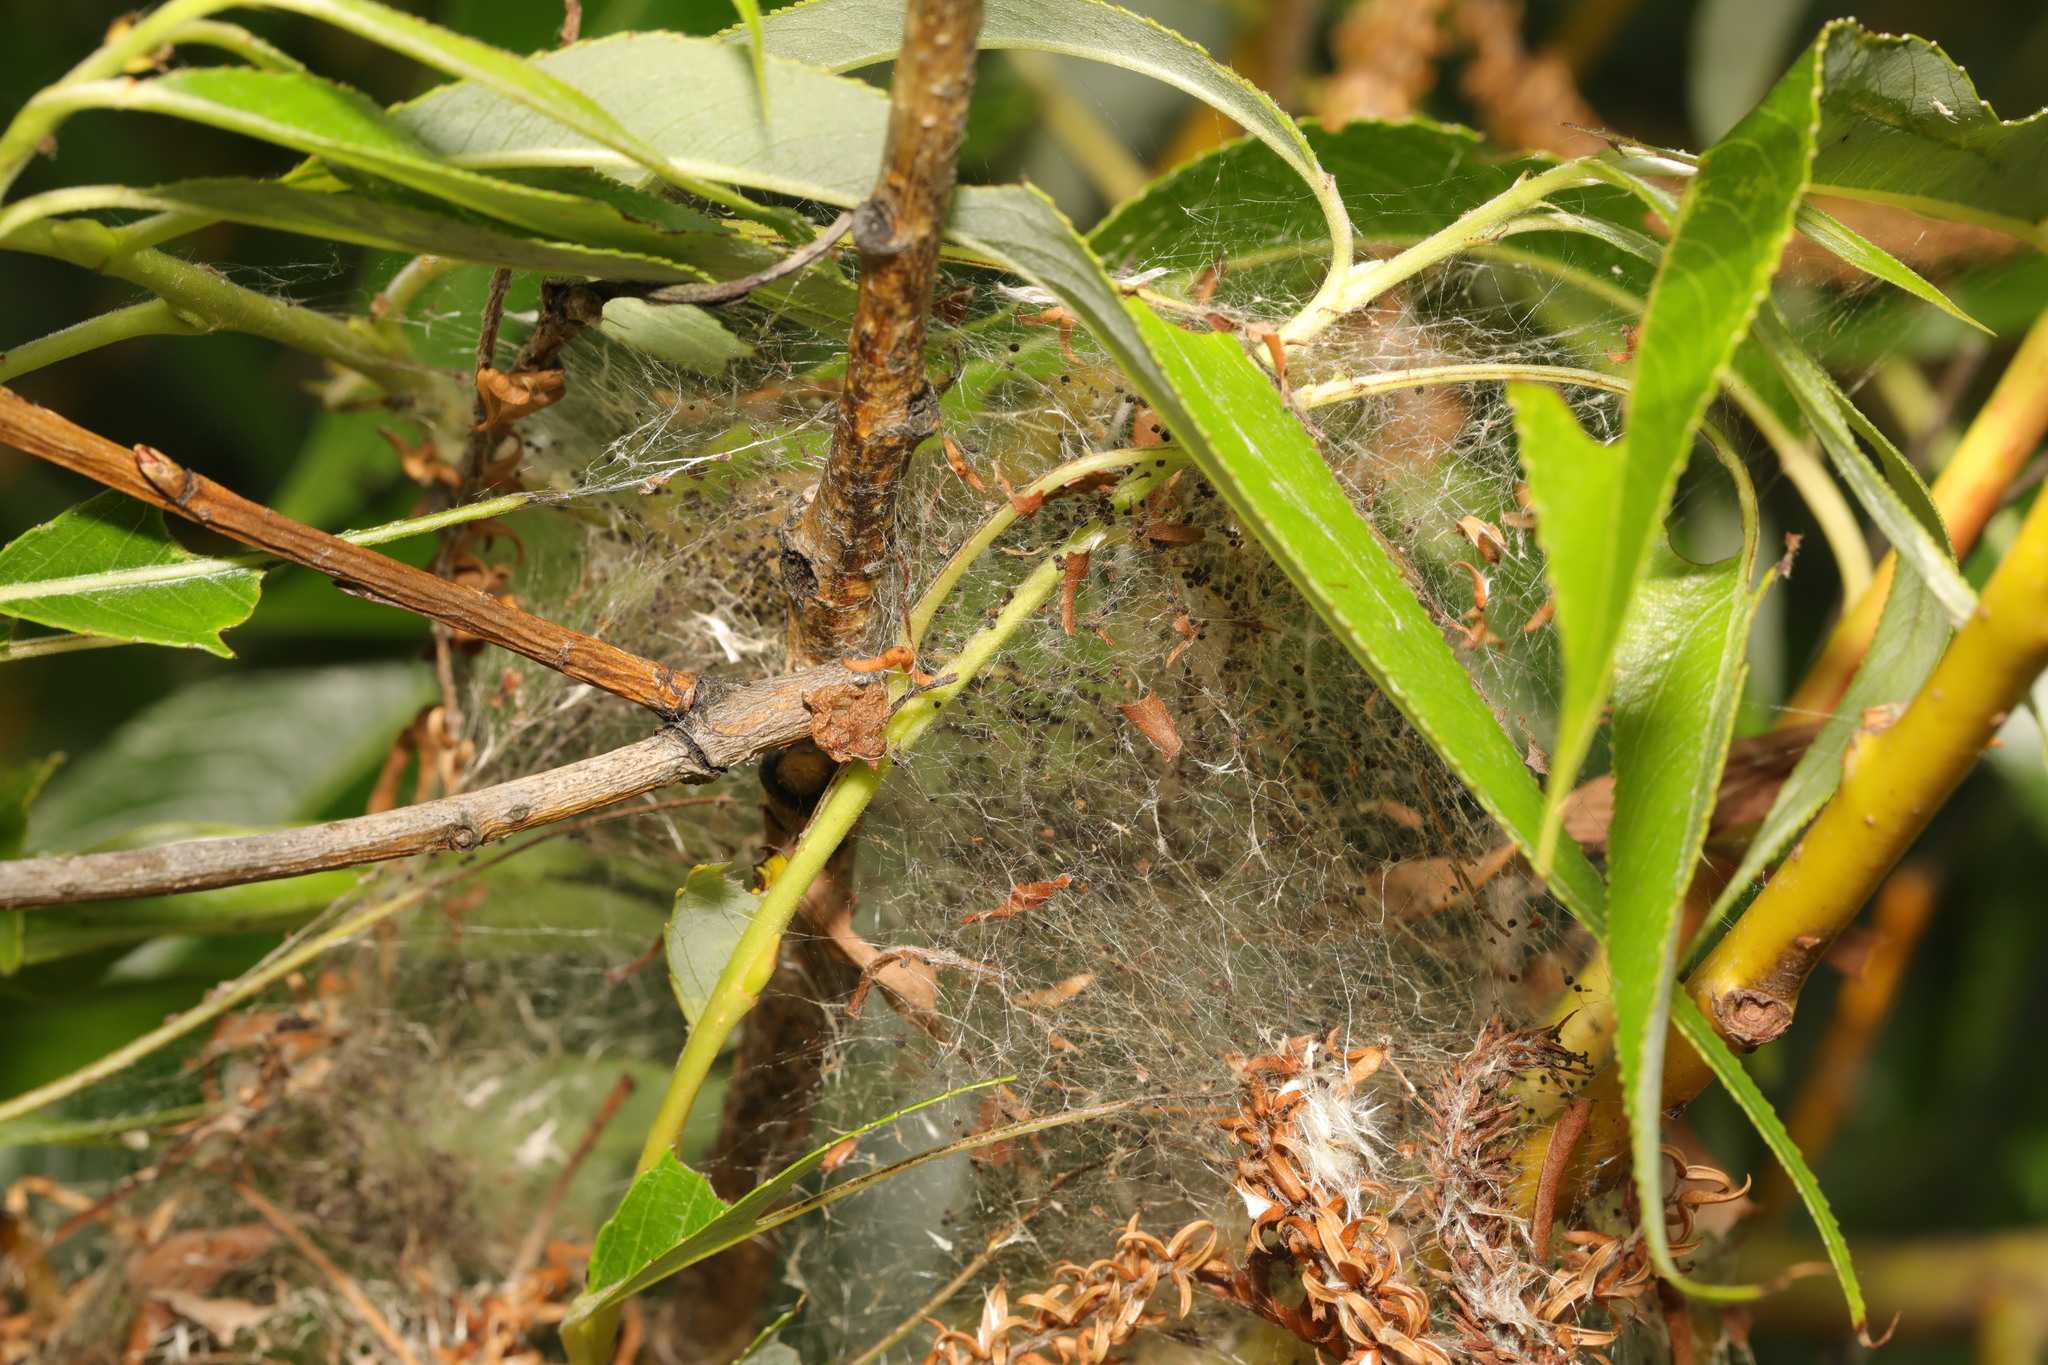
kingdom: Animalia
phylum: Arthropoda
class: Insecta
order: Lepidoptera
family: Yponomeutidae
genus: Yponomeuta
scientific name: Yponomeuta padella
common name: Orchard ermine
